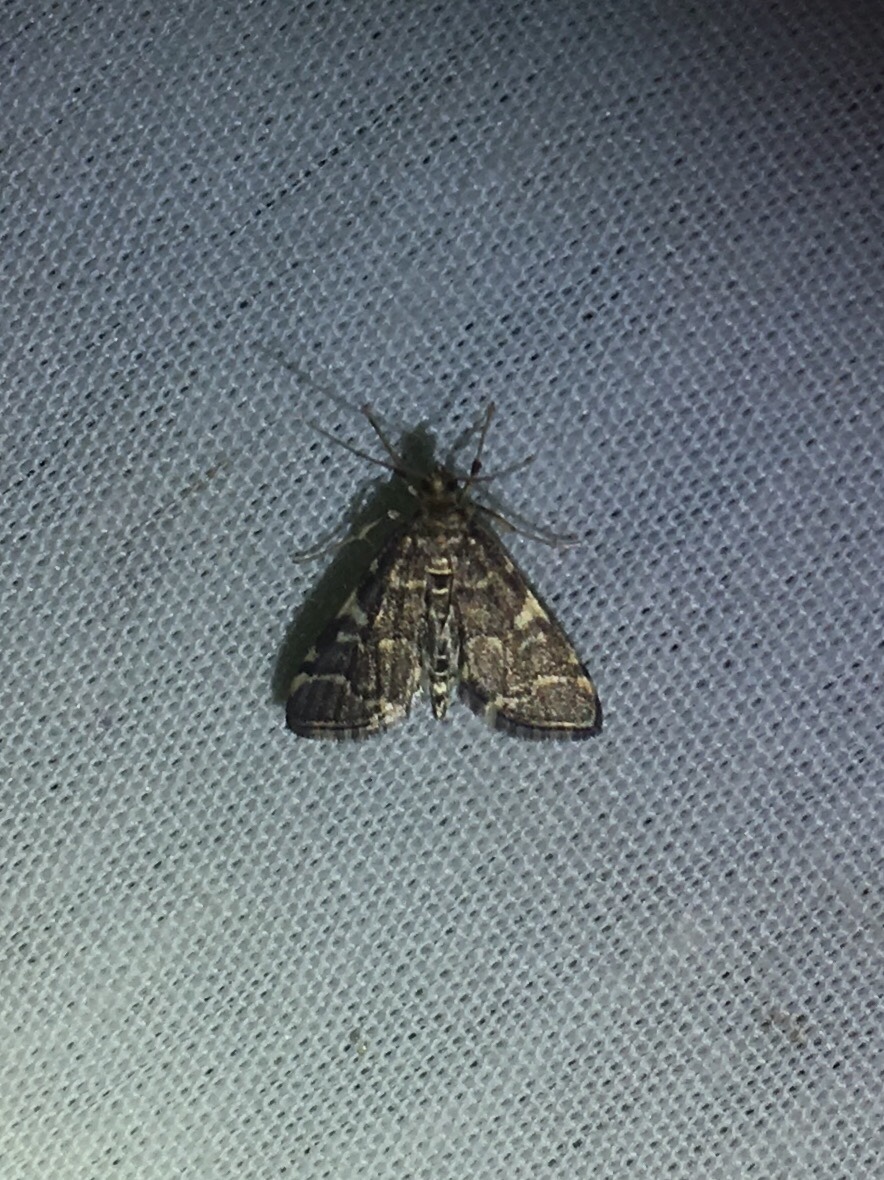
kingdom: Animalia
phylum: Arthropoda
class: Insecta
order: Lepidoptera
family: Crambidae
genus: Anageshna
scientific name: Anageshna primordialis
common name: Yellow-spotted webworm moth
